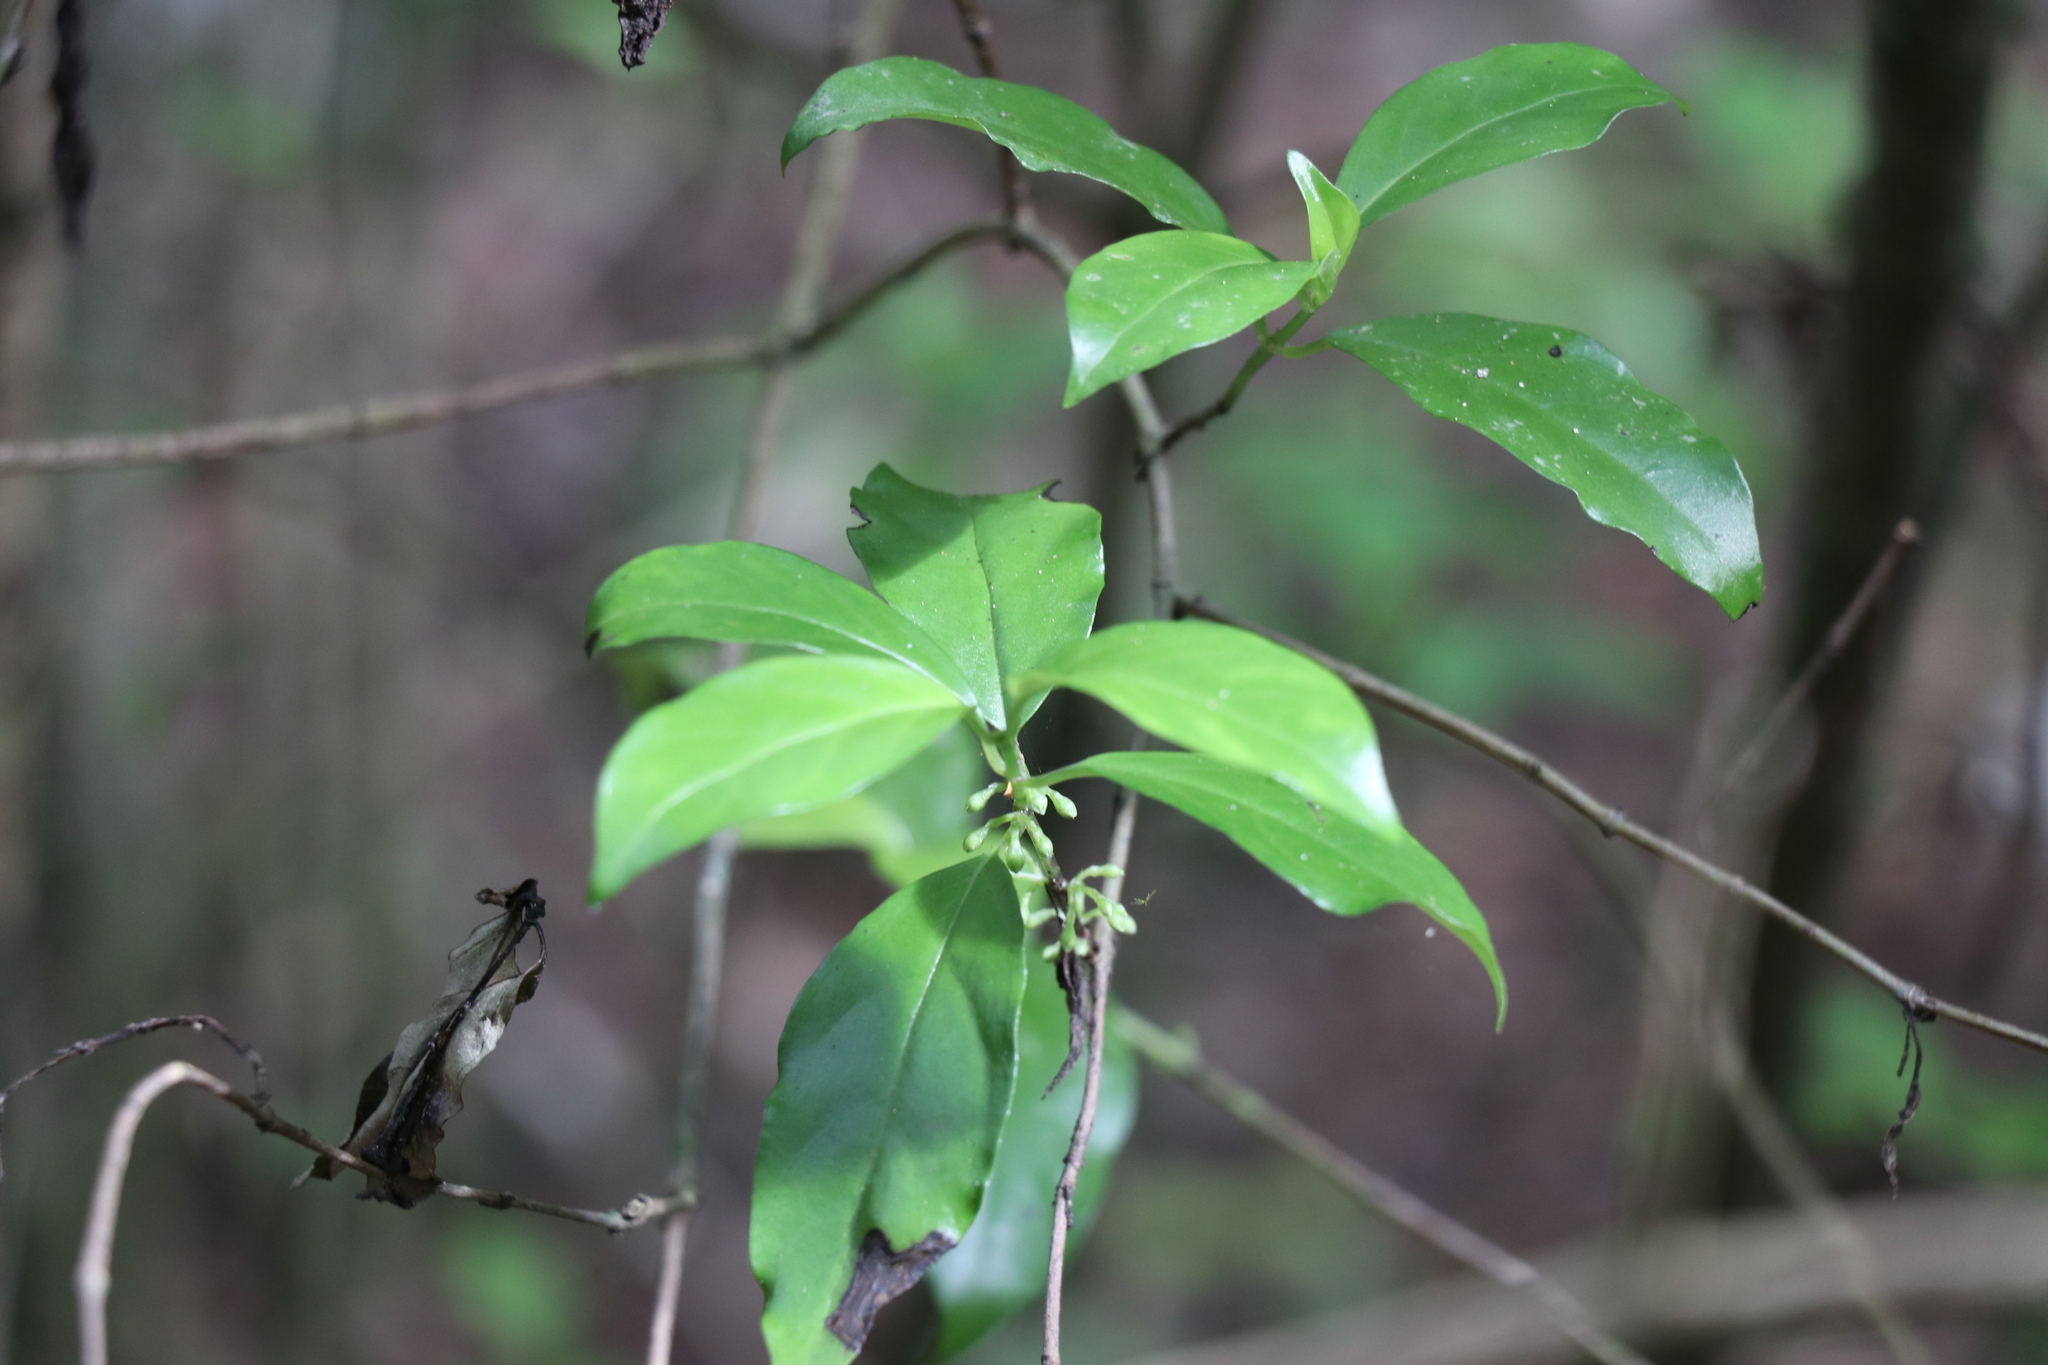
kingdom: Plantae
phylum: Tracheophyta
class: Magnoliopsida
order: Gentianales
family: Loganiaceae
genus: Geniostoma
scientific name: Geniostoma ligustrifolium
